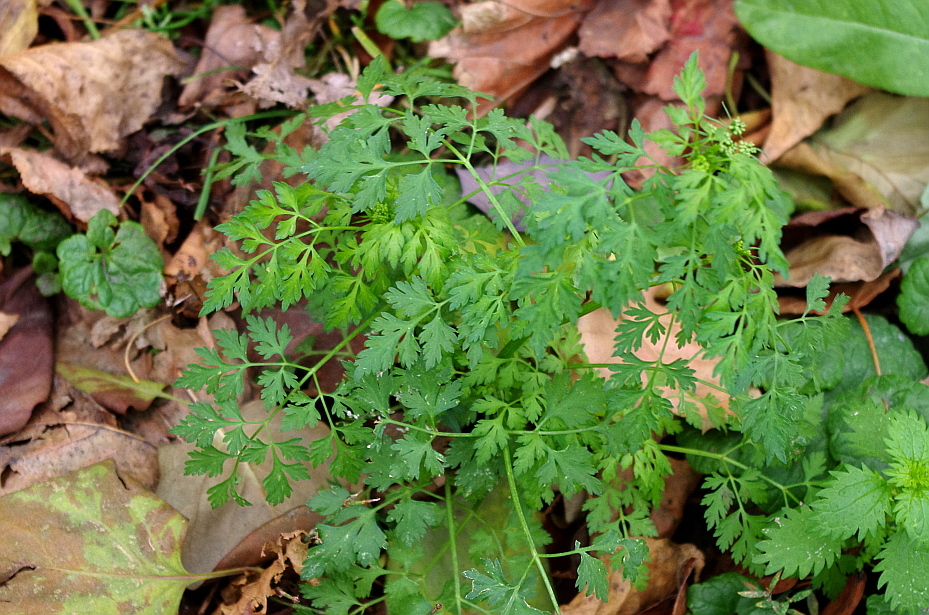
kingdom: Plantae
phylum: Tracheophyta
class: Magnoliopsida
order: Apiales
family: Apiaceae
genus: Aethusa
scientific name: Aethusa cynapium
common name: Fool's parsley
